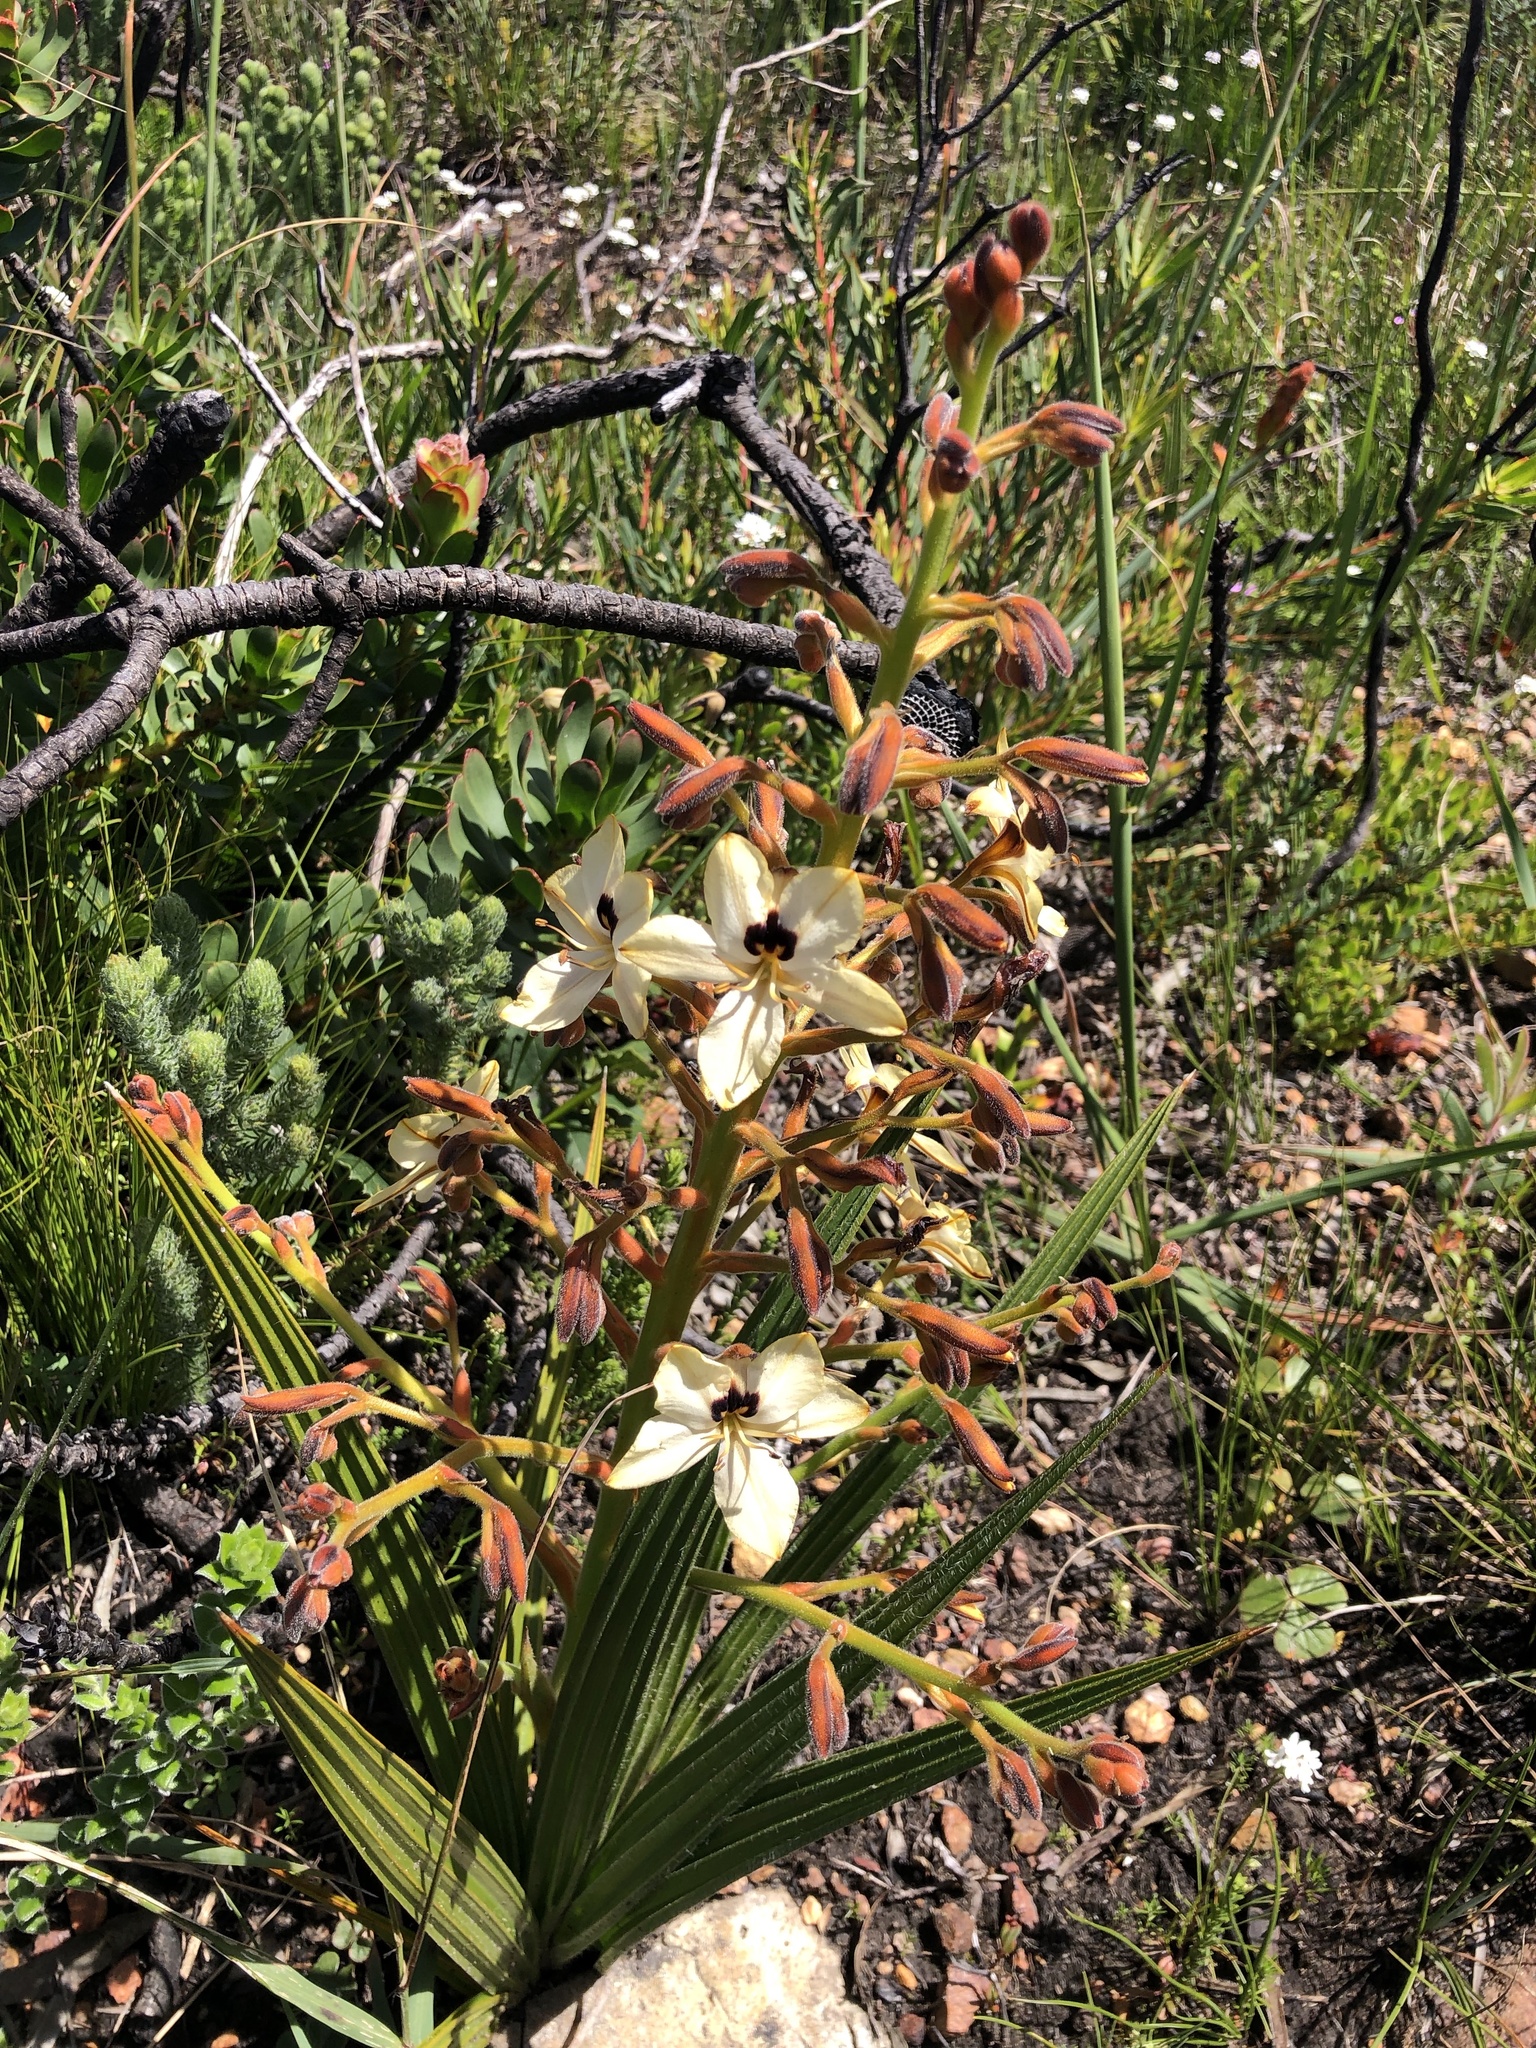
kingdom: Plantae
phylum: Tracheophyta
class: Liliopsida
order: Commelinales
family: Haemodoraceae
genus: Wachendorfia
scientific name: Wachendorfia paniculata
